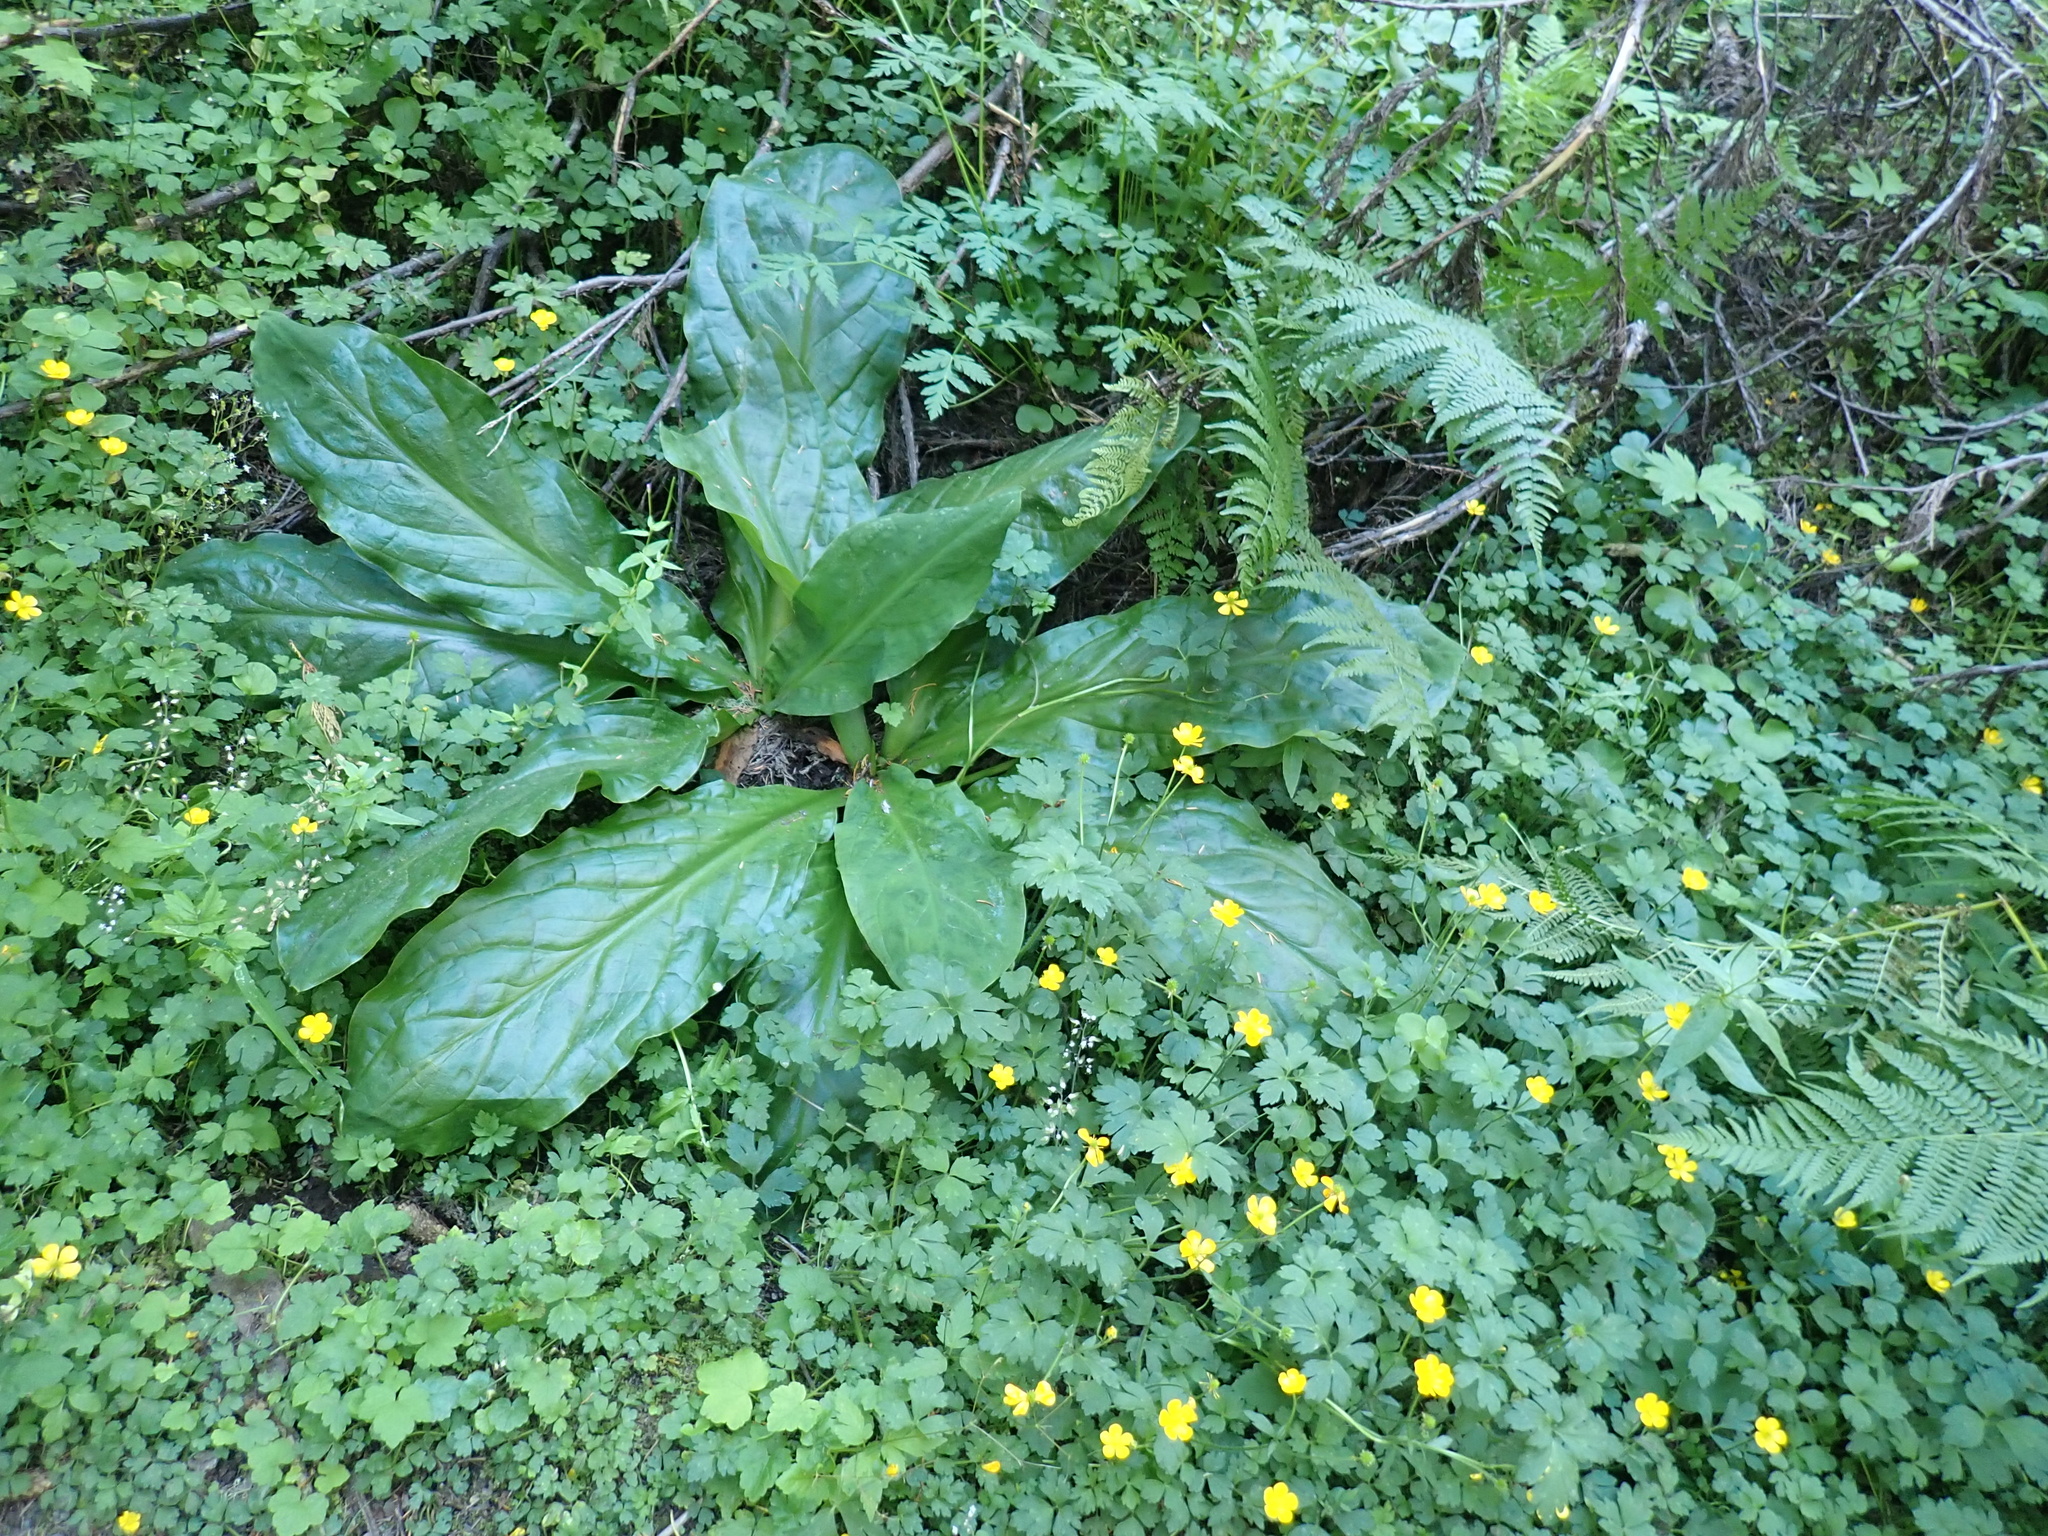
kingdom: Plantae
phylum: Tracheophyta
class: Liliopsida
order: Alismatales
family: Araceae
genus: Lysichiton
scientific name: Lysichiton americanus
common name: American skunk cabbage
